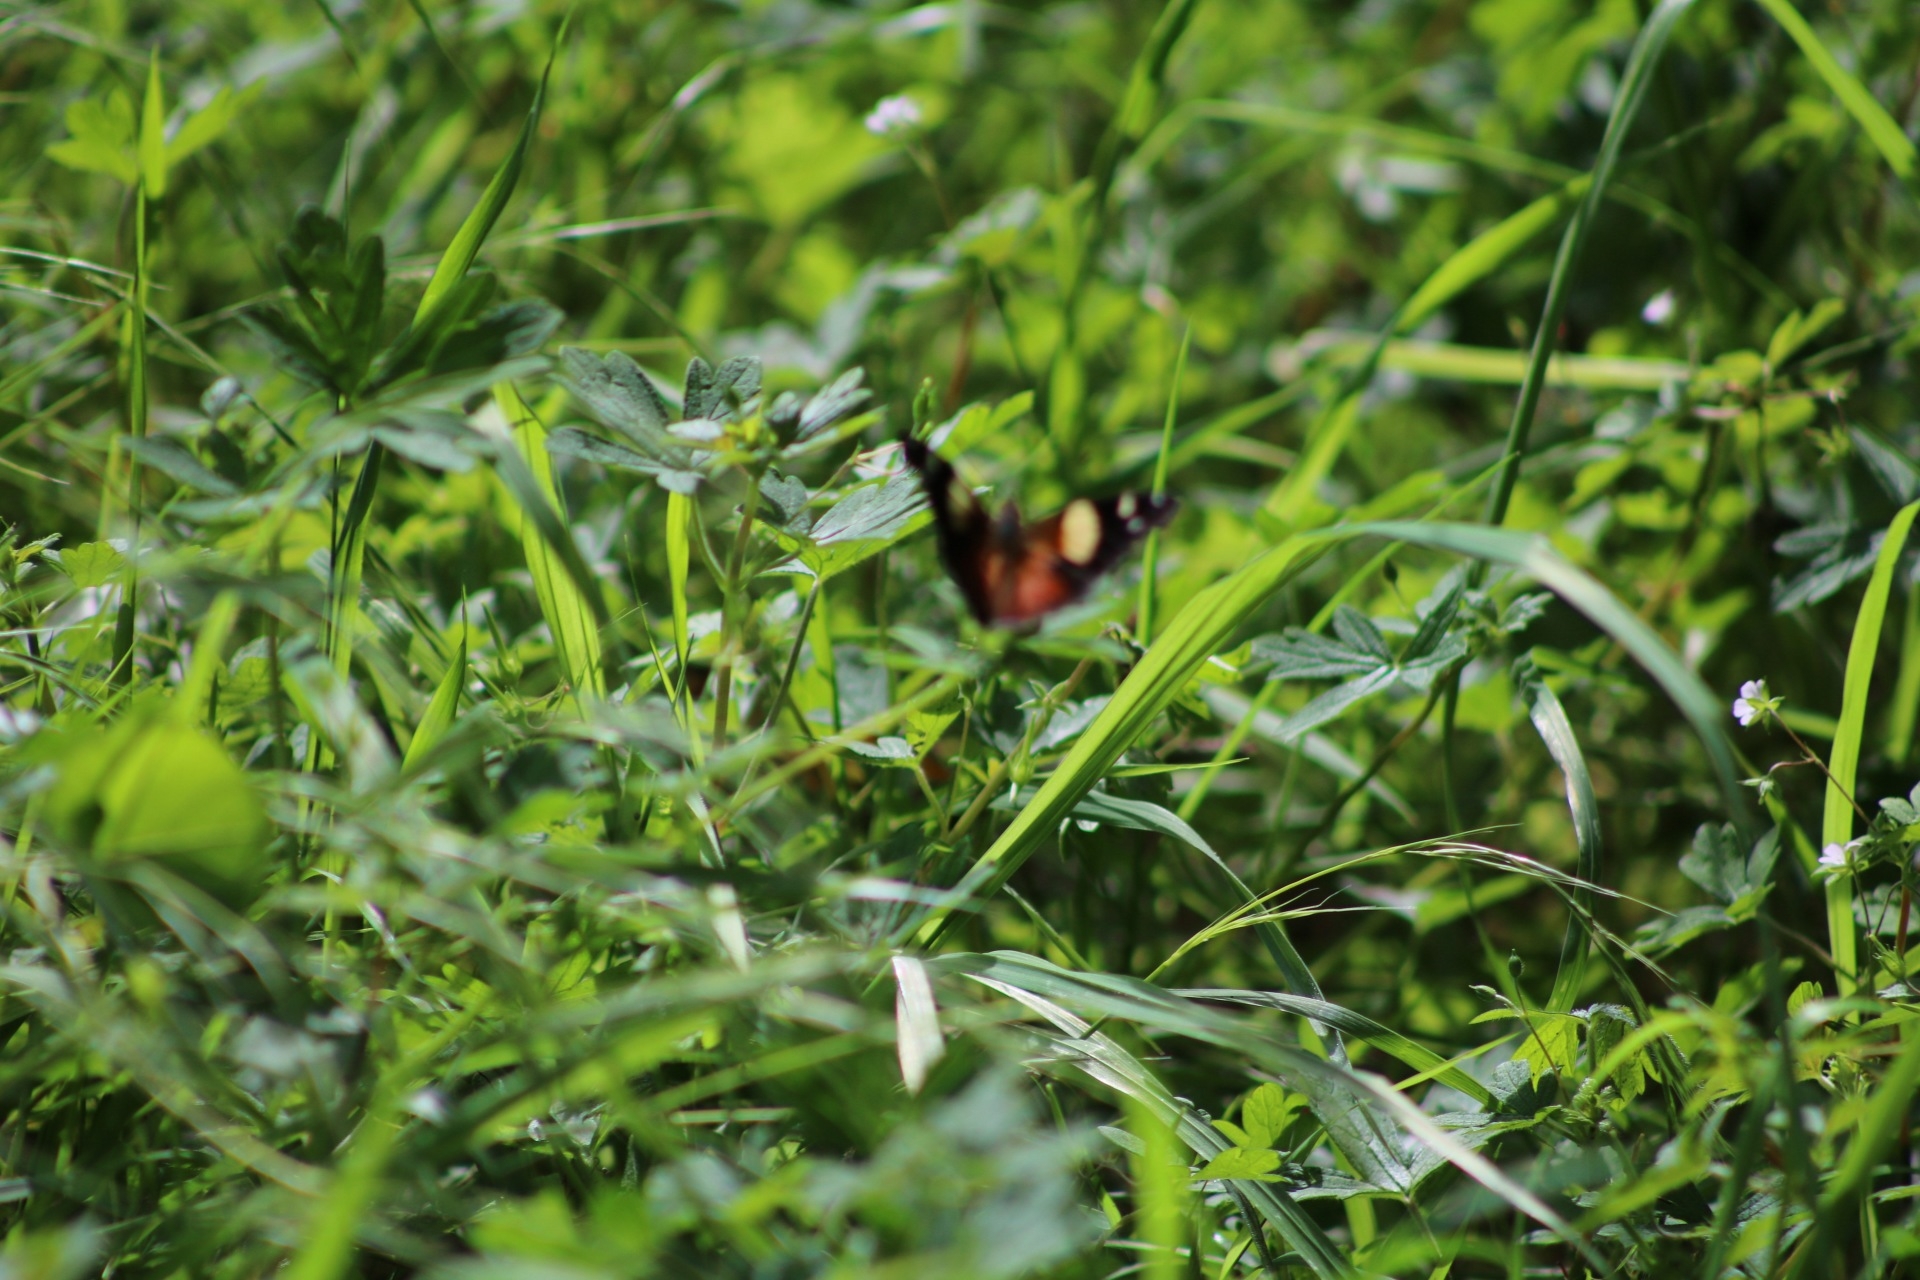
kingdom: Animalia
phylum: Arthropoda
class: Insecta
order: Lepidoptera
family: Nymphalidae
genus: Vanessa
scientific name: Vanessa itea
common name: Yellow admiral
